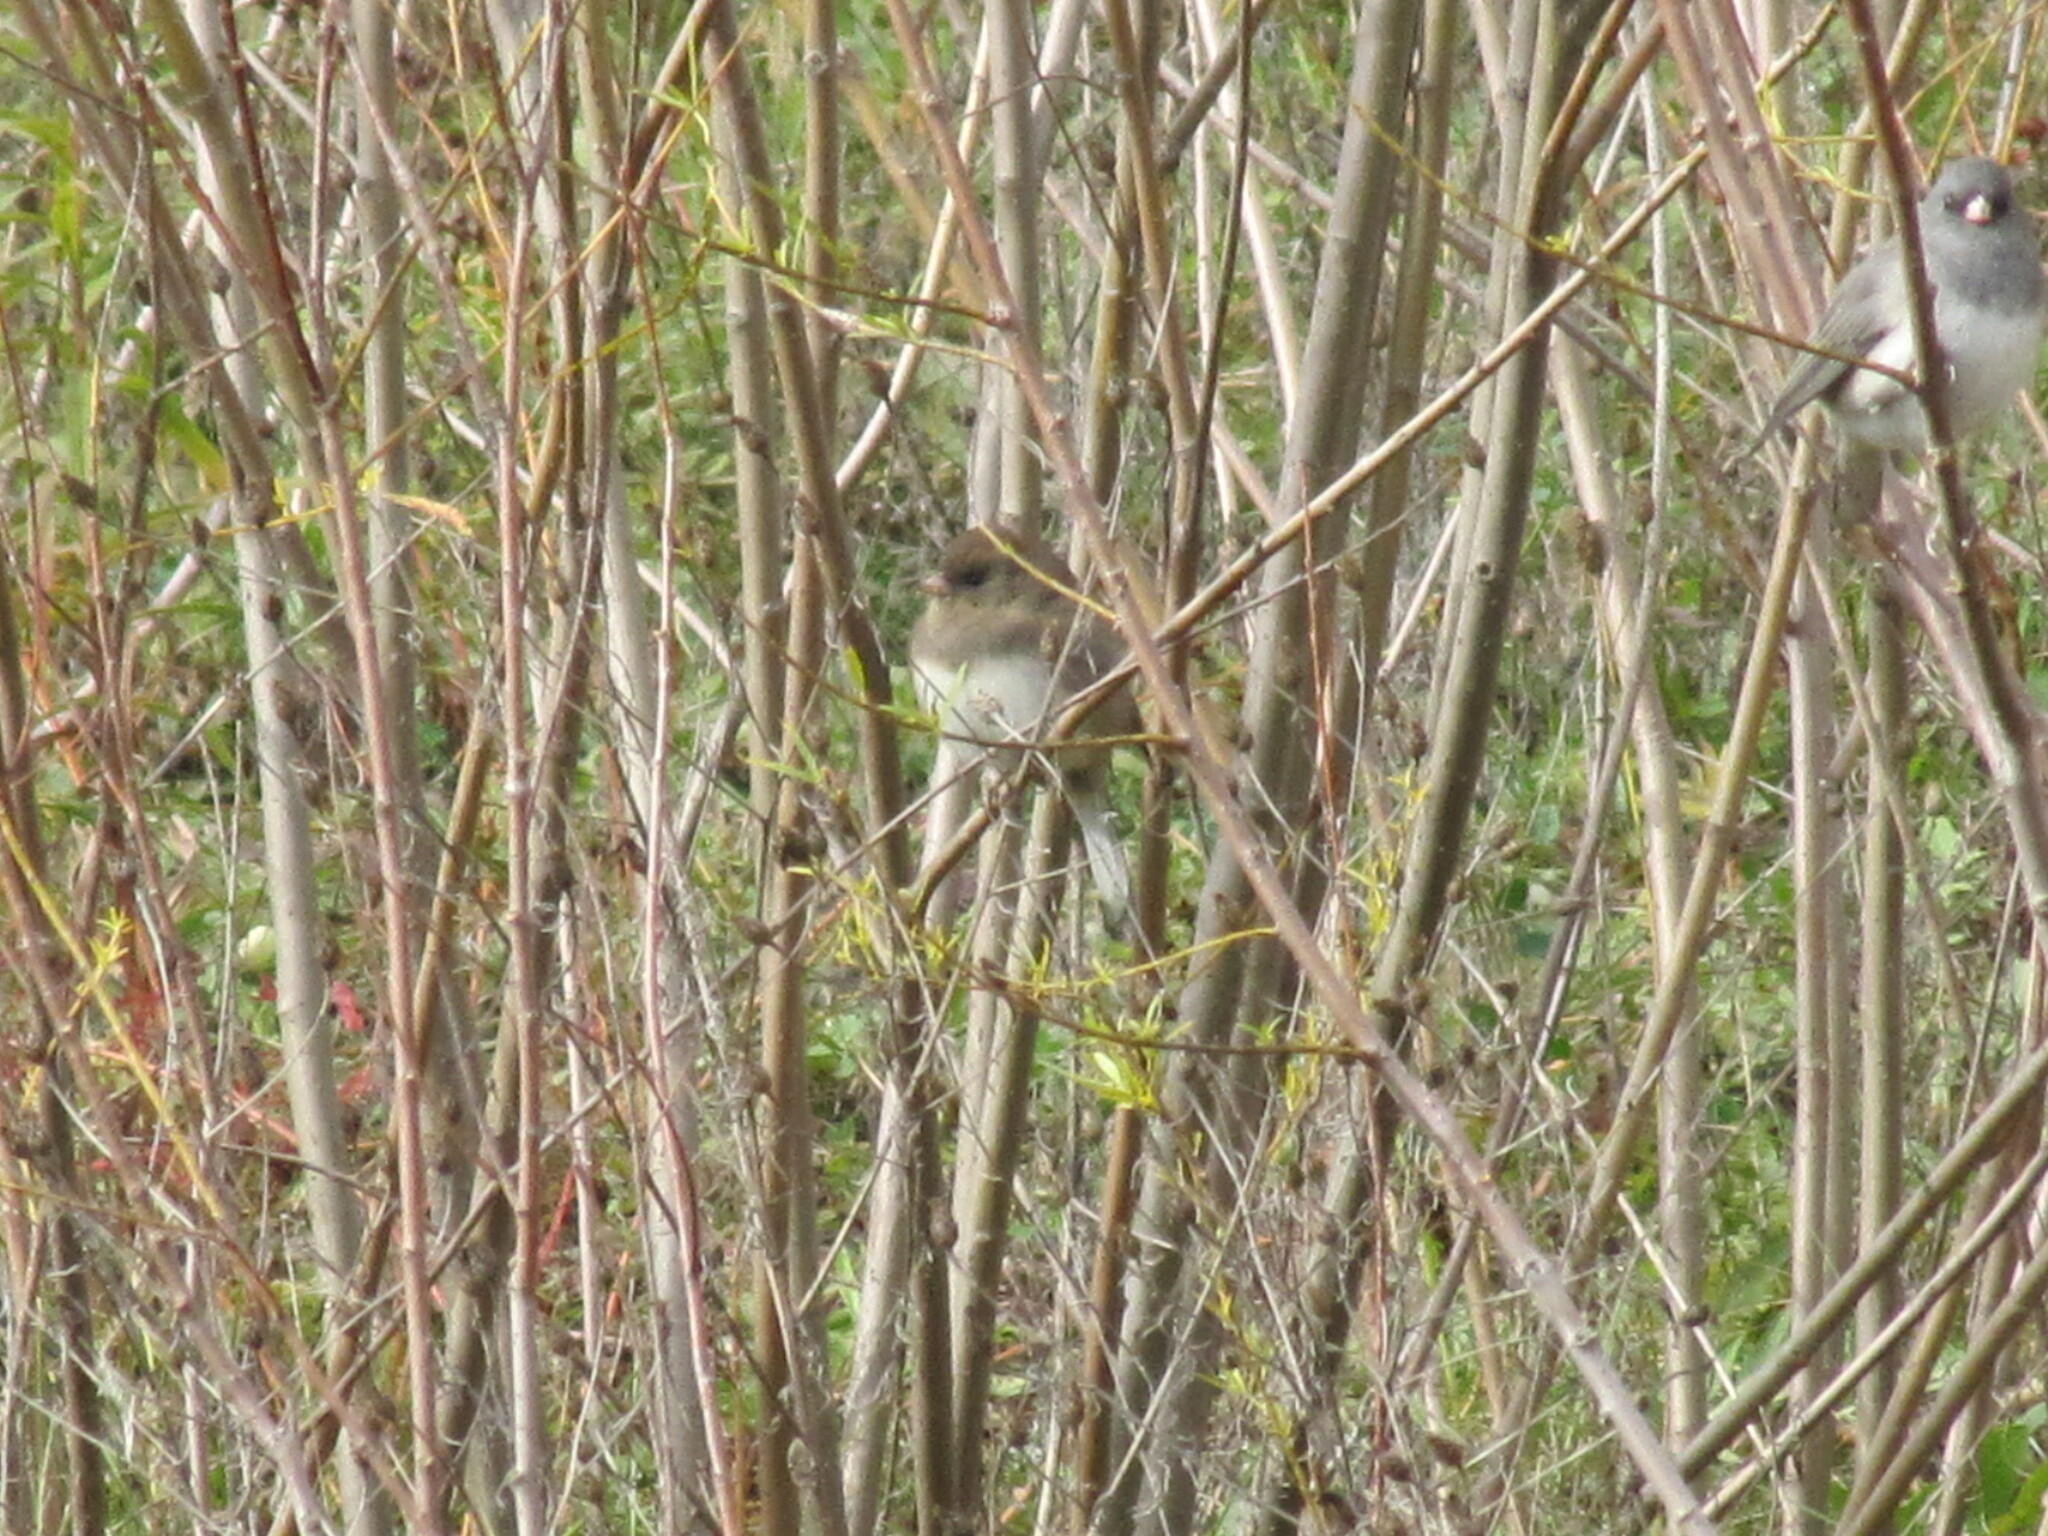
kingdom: Animalia
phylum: Chordata
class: Aves
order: Passeriformes
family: Passerellidae
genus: Junco
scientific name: Junco hyemalis
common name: Dark-eyed junco
